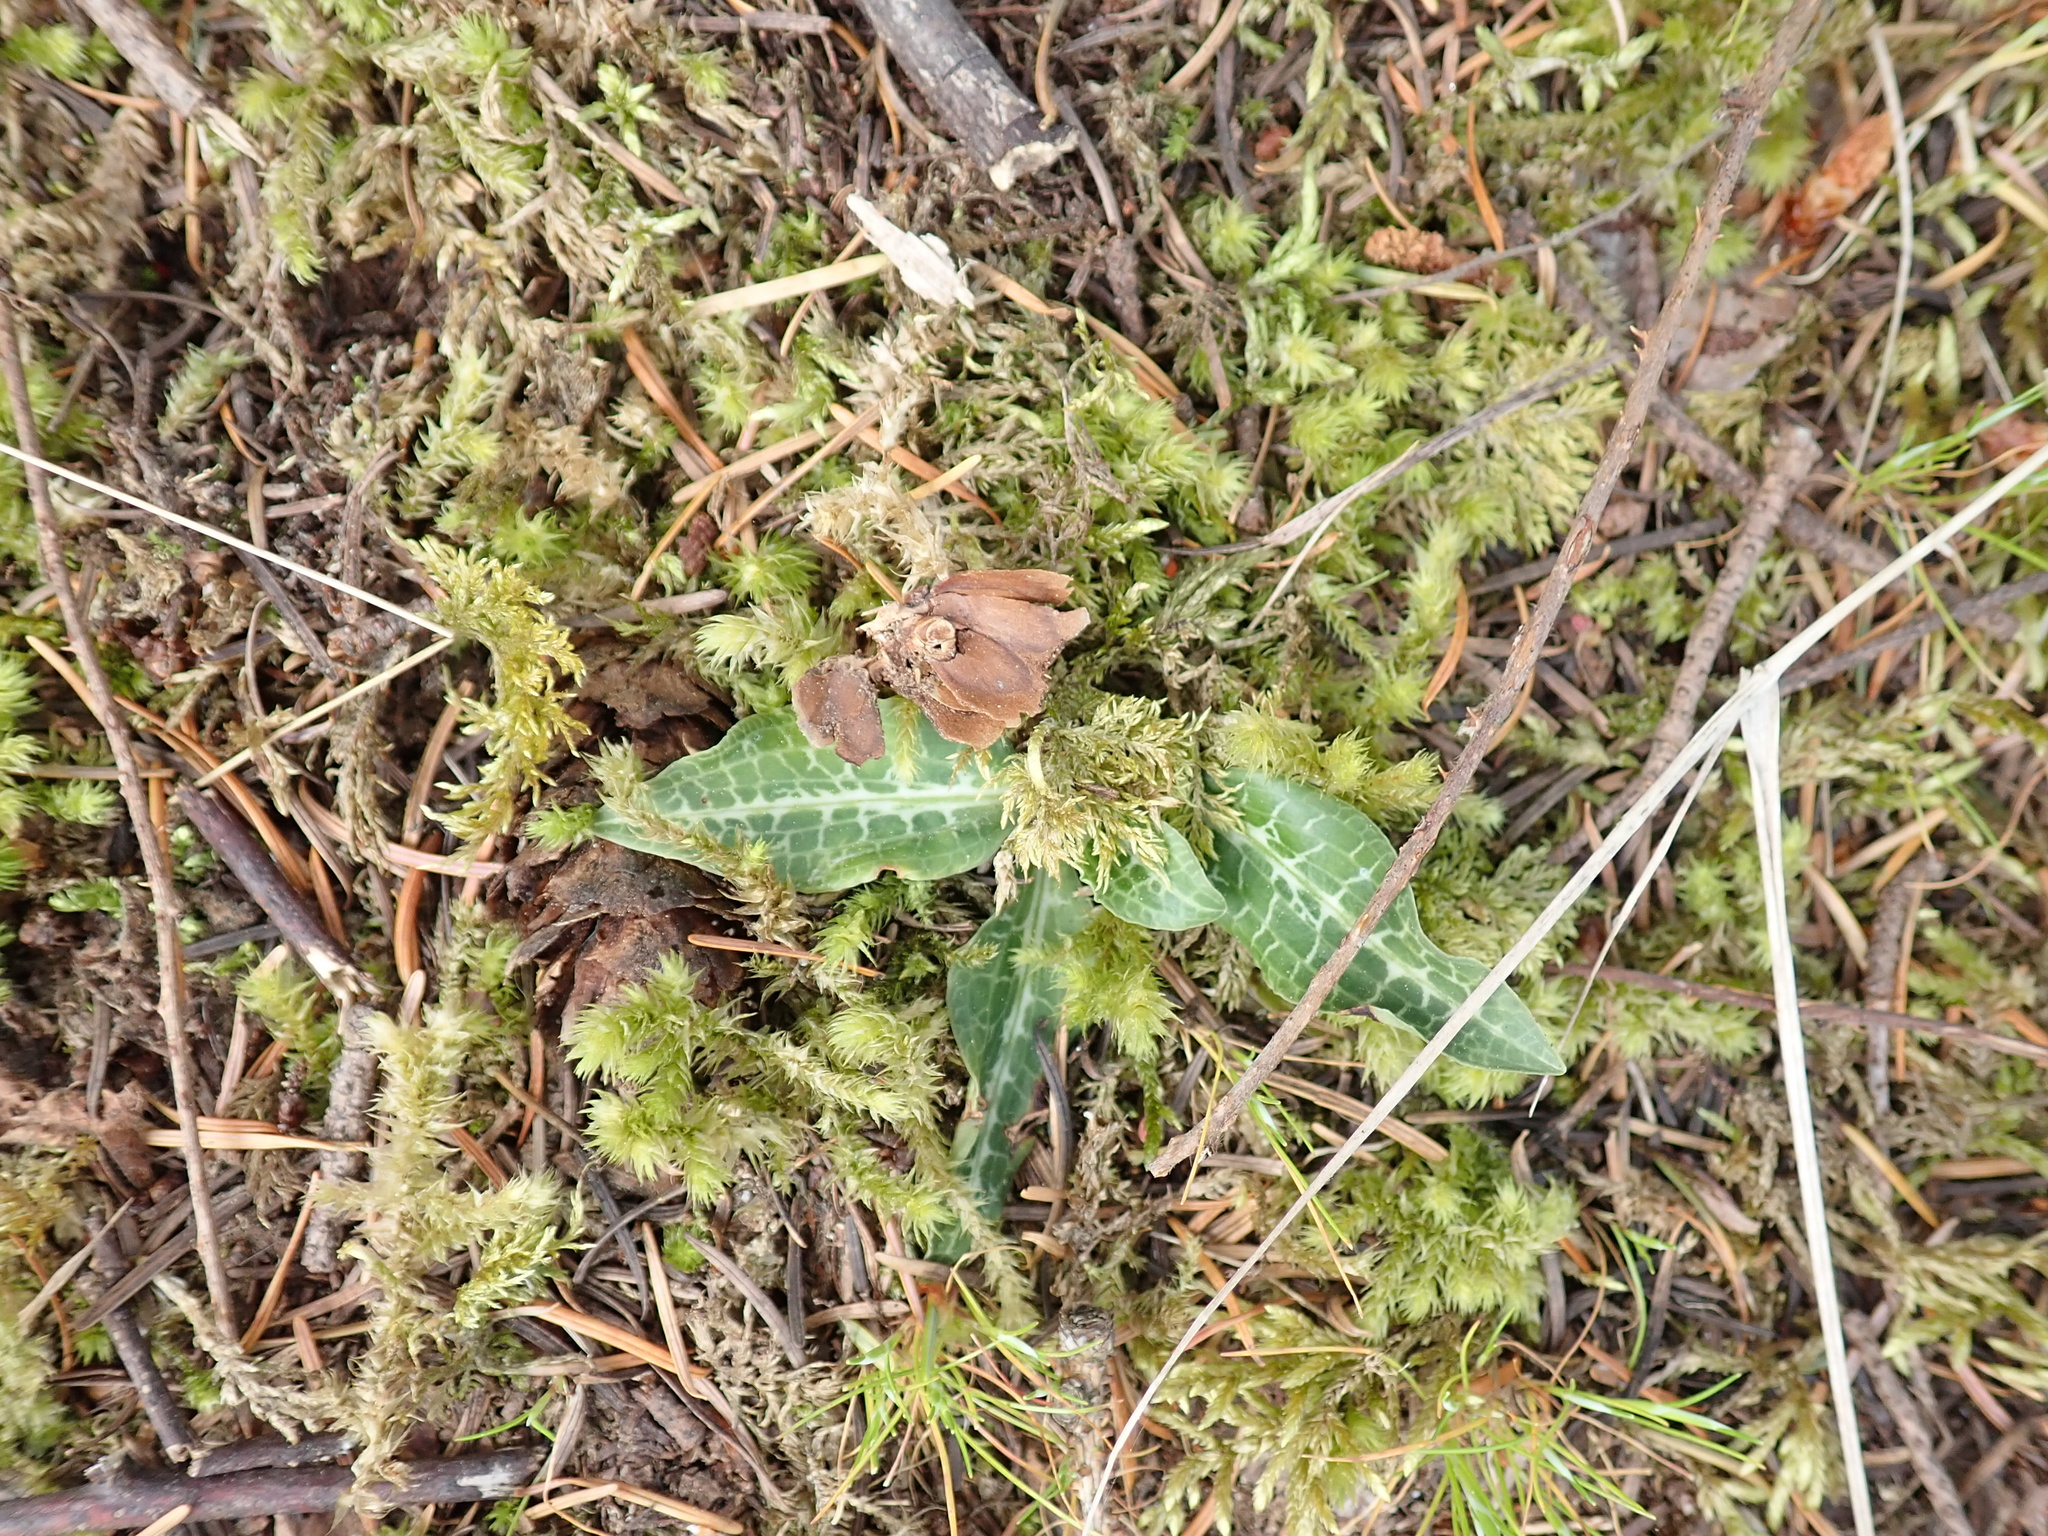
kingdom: Plantae
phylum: Tracheophyta
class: Liliopsida
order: Asparagales
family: Orchidaceae
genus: Goodyera
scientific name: Goodyera oblongifolia
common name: Giant rattlesnake-plantain
